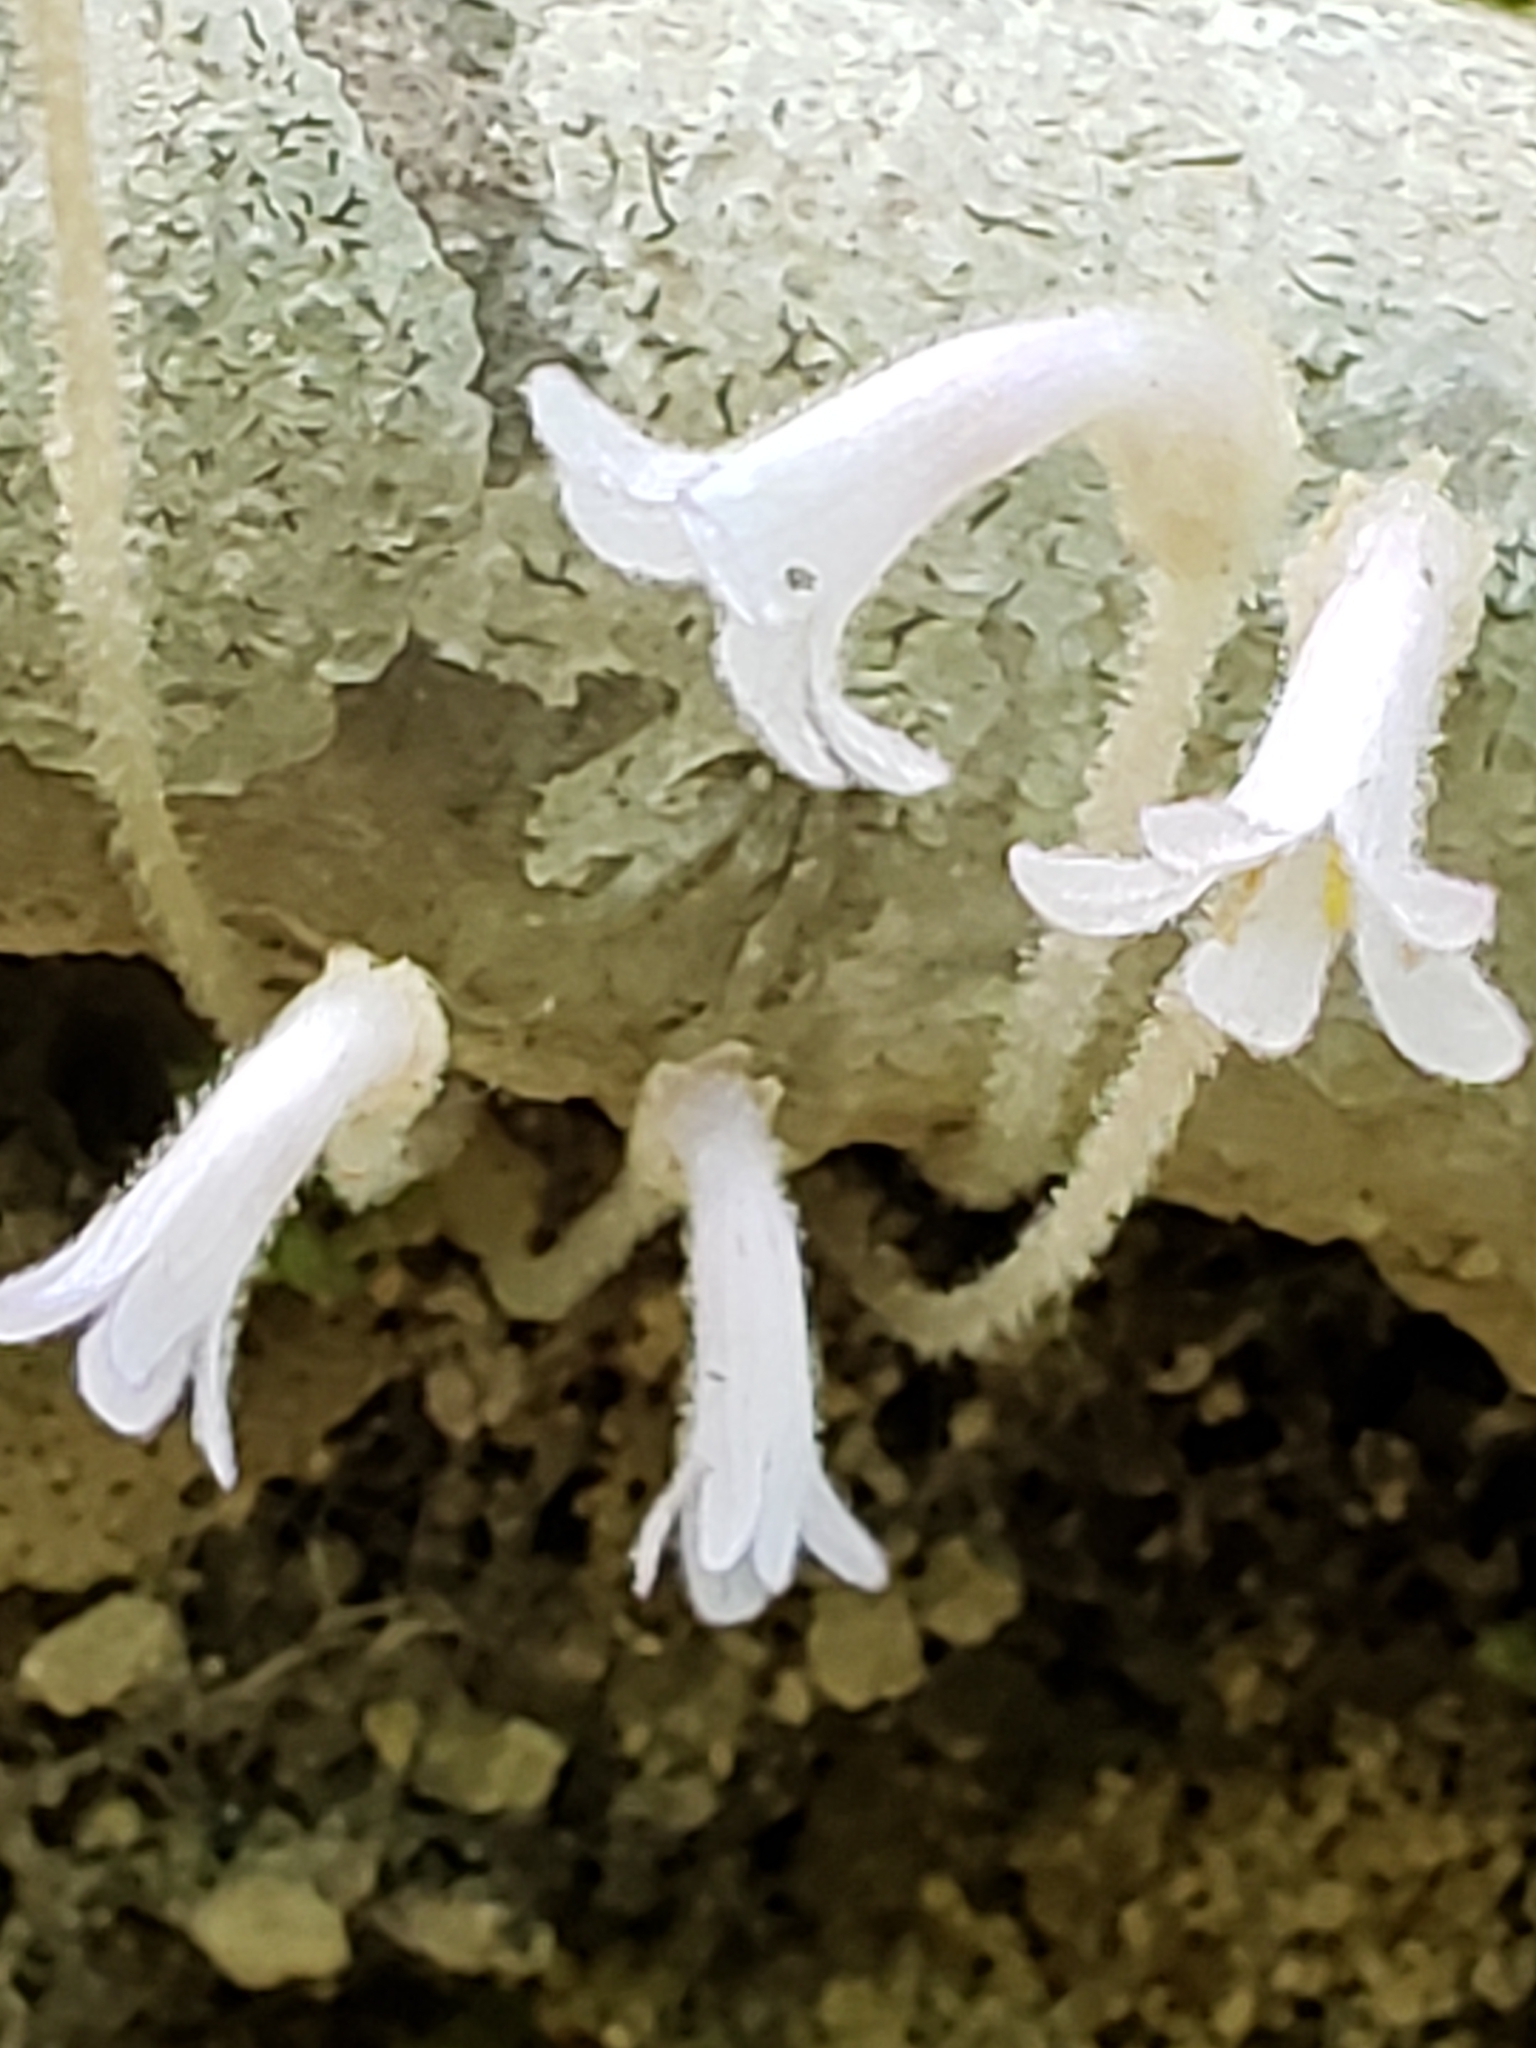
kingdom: Plantae
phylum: Tracheophyta
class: Magnoliopsida
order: Lamiales
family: Orobanchaceae
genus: Aphyllon
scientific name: Aphyllon uniflorum
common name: One-flowered broomrape
